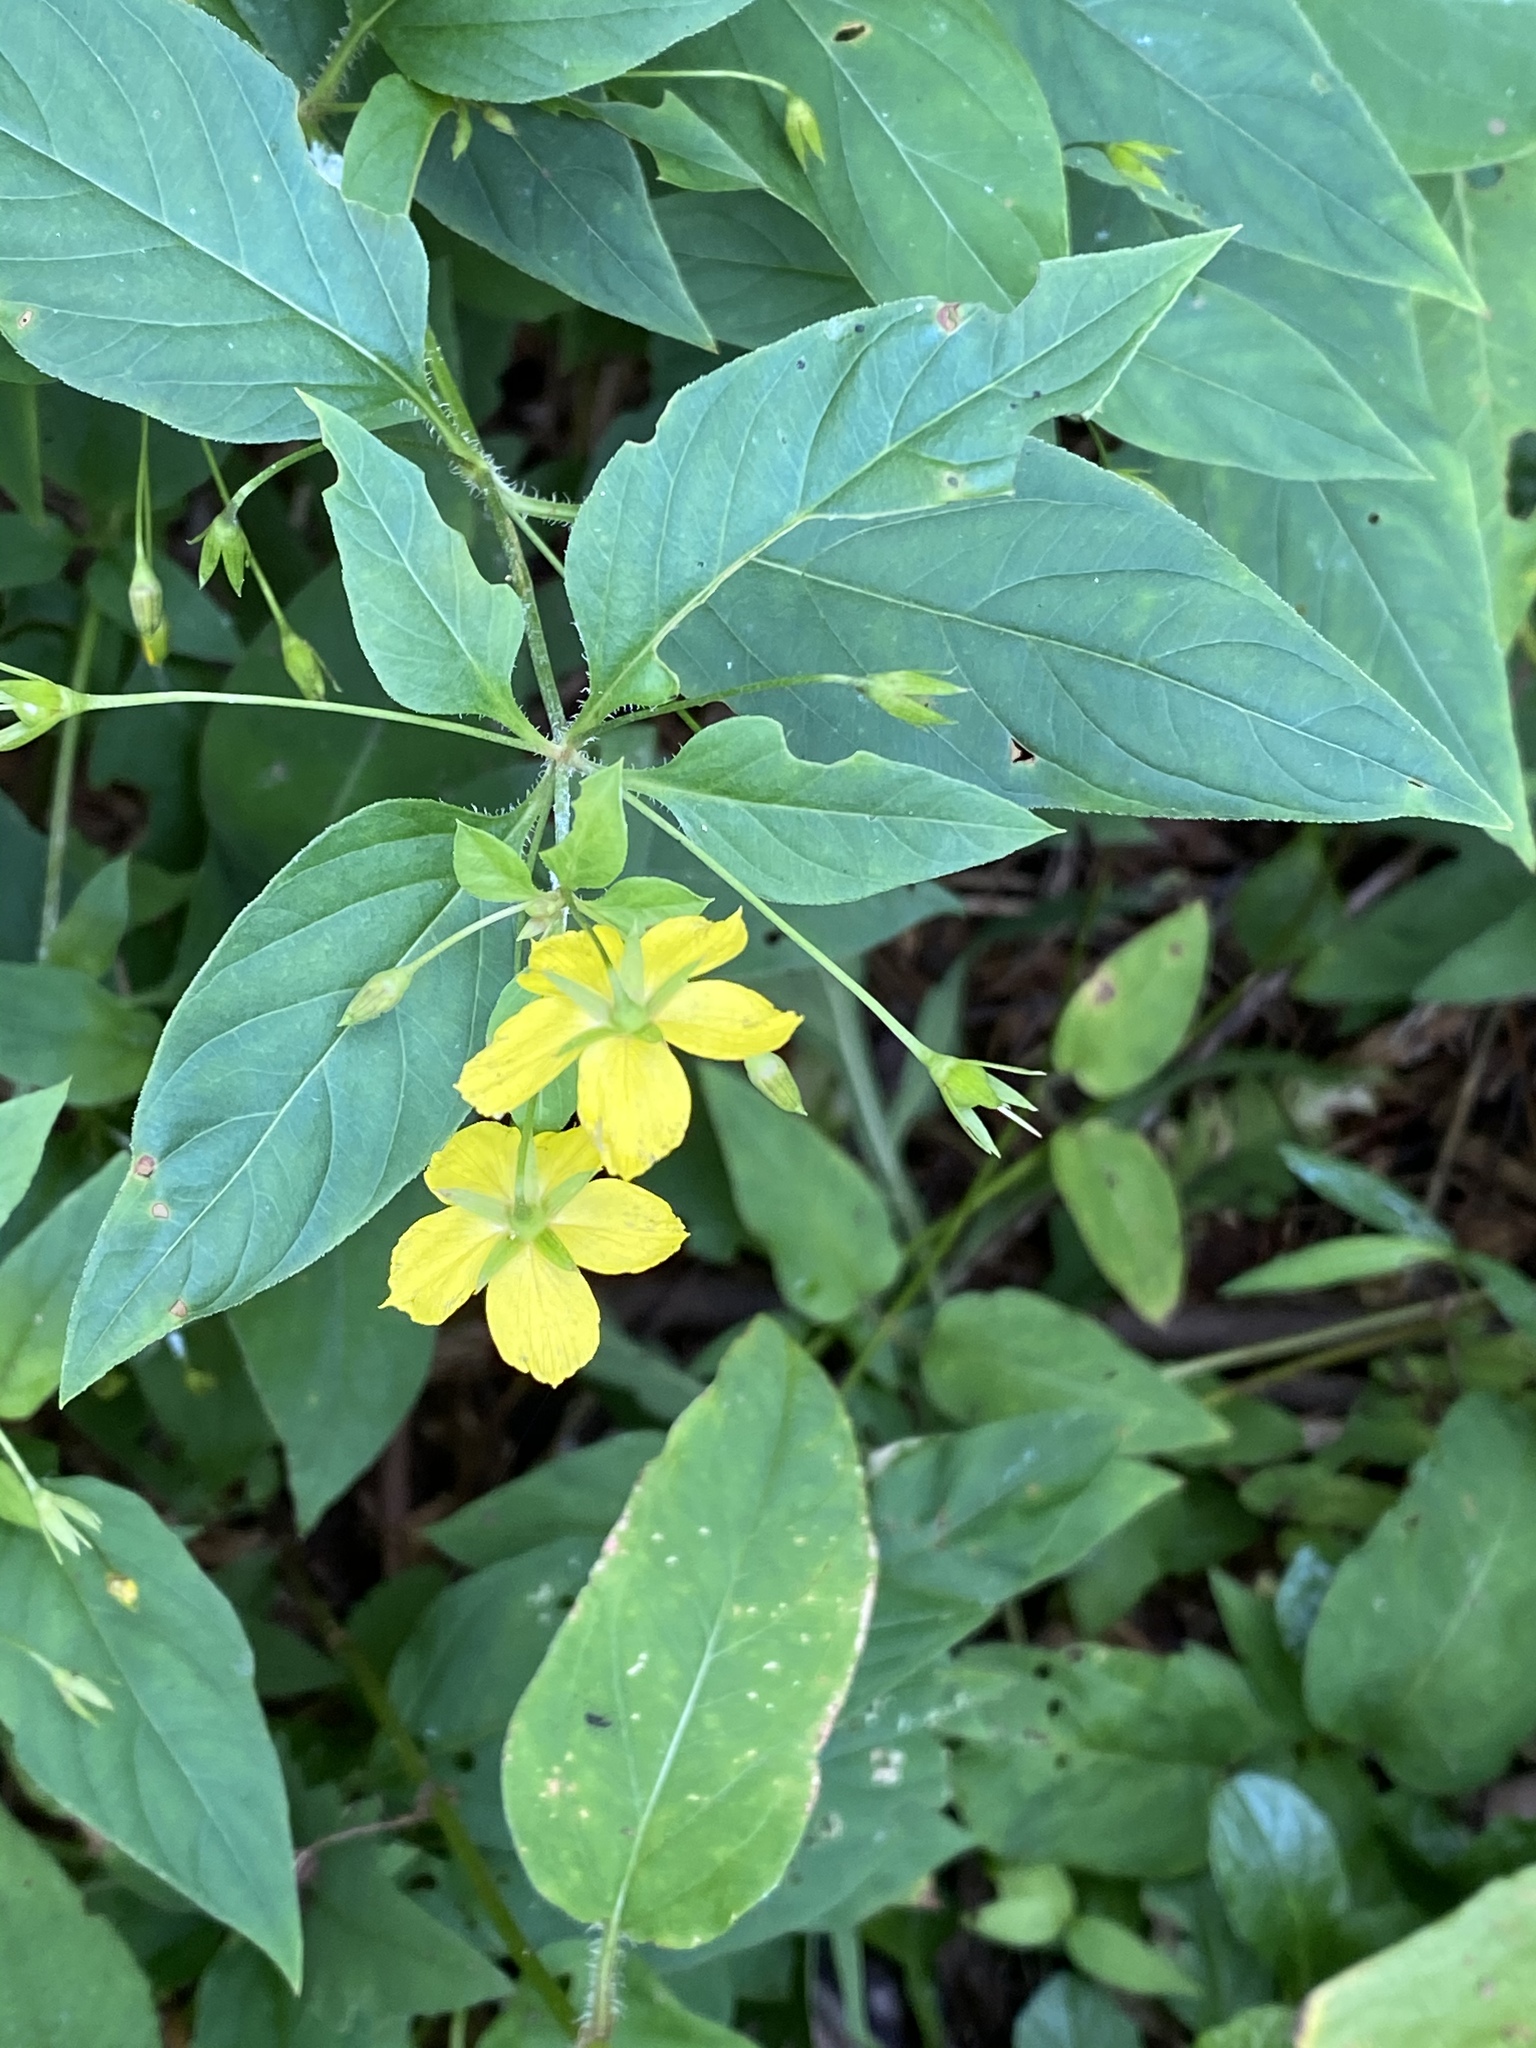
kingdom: Plantae
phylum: Tracheophyta
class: Magnoliopsida
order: Ericales
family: Primulaceae
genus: Lysimachia
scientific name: Lysimachia ciliata
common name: Fringed loosestrife
